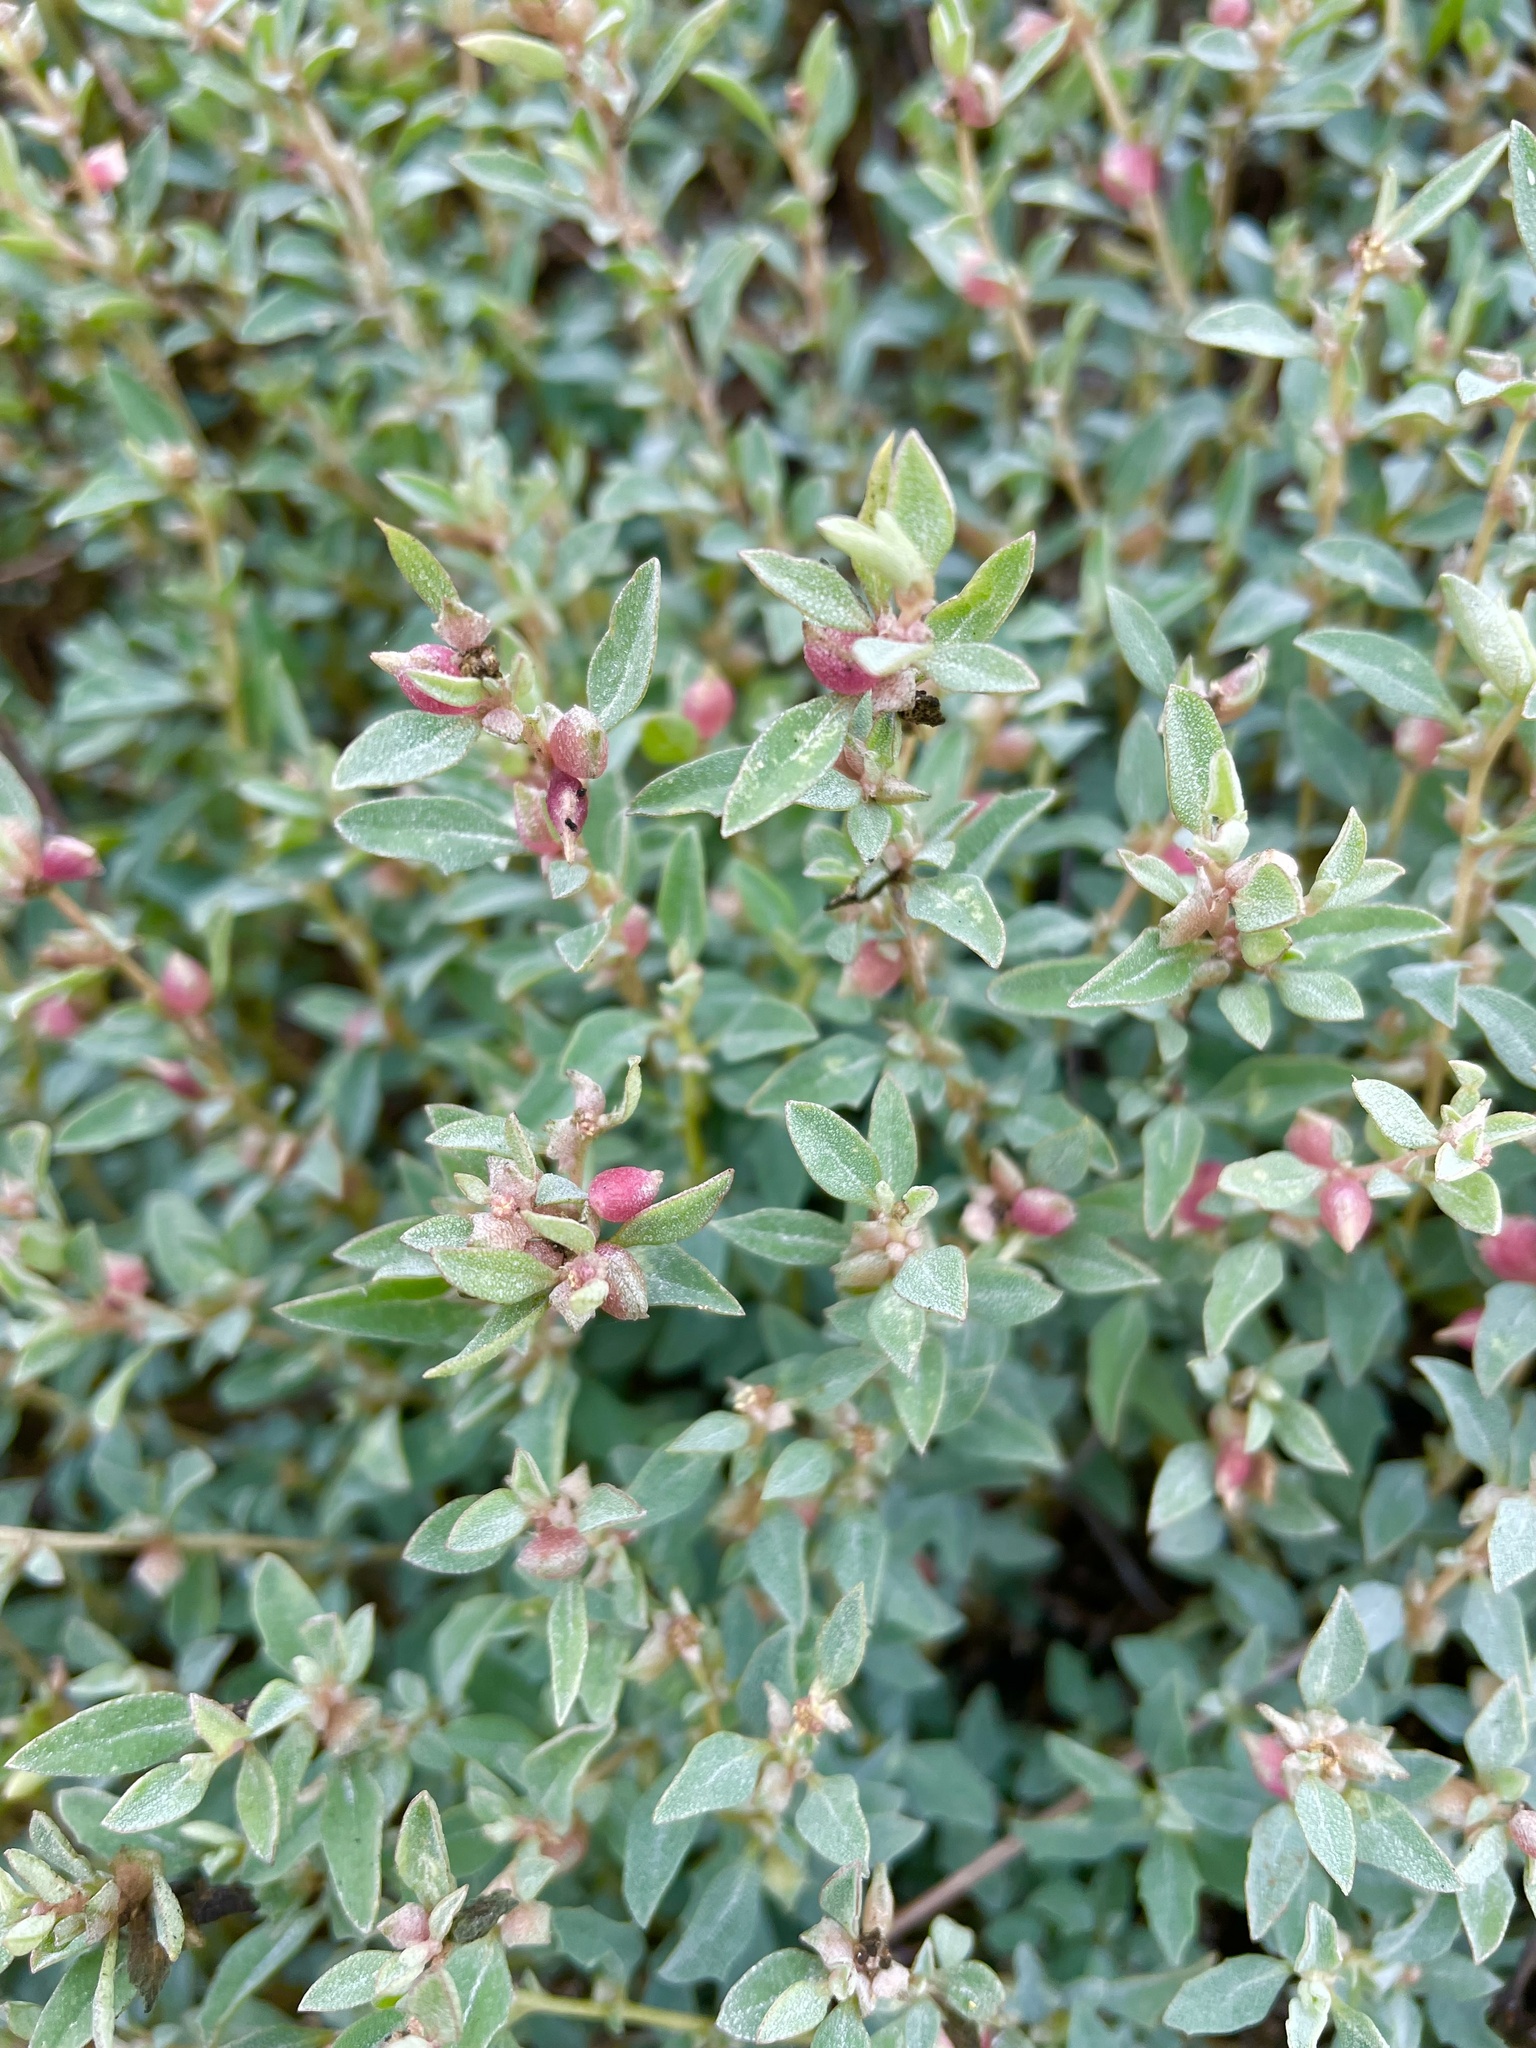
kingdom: Plantae
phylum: Tracheophyta
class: Magnoliopsida
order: Caryophyllales
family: Amaranthaceae
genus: Atriplex
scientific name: Atriplex semibaccata
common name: Australian saltbush
